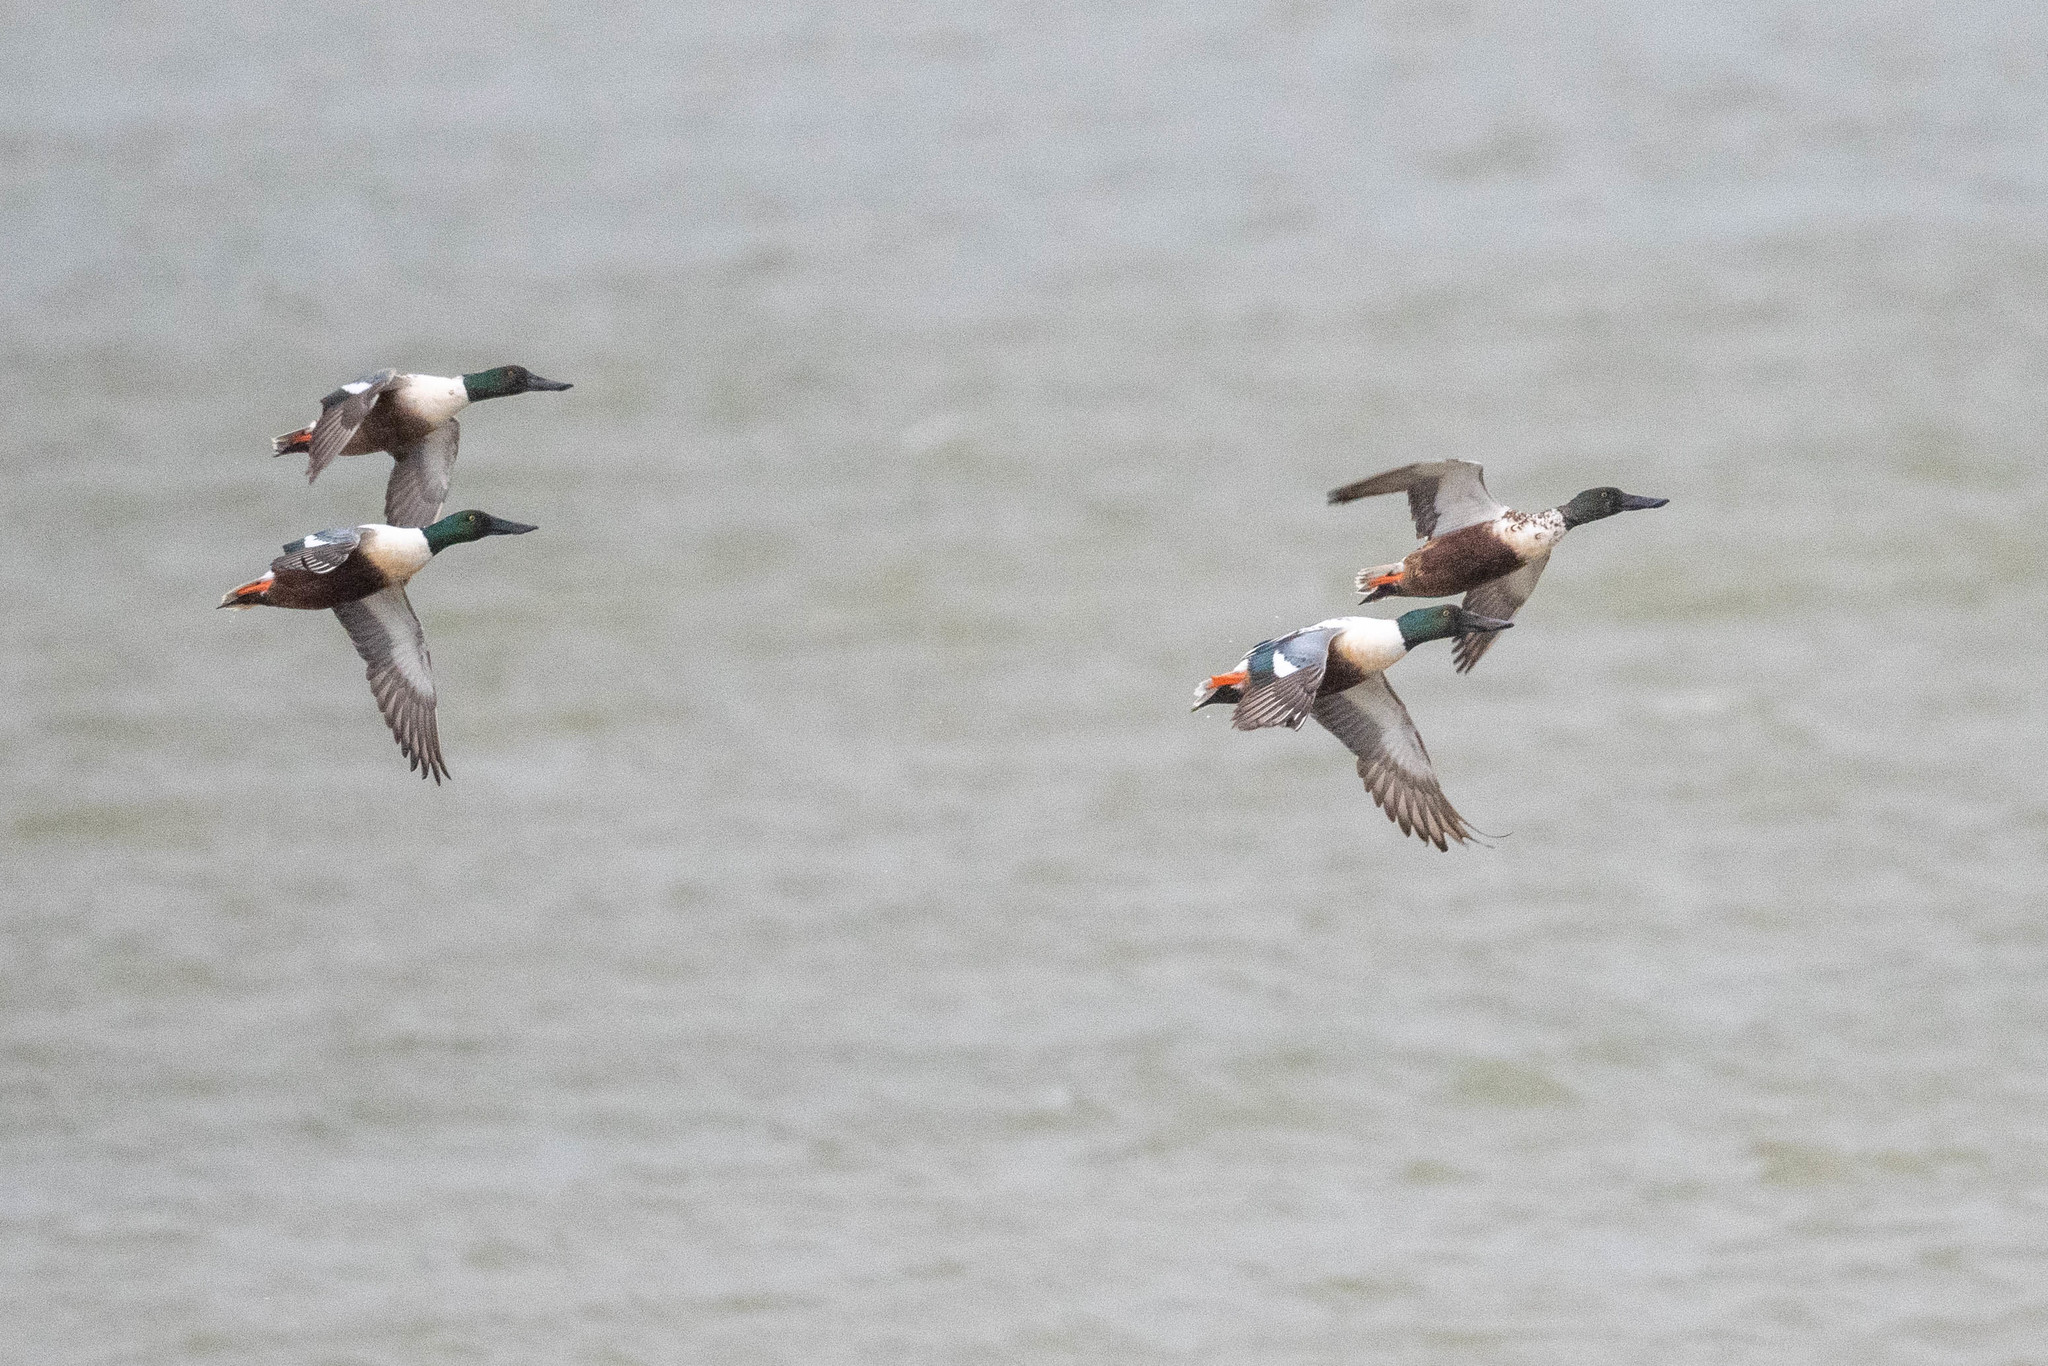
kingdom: Animalia
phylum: Chordata
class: Aves
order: Anseriformes
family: Anatidae
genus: Spatula
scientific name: Spatula clypeata
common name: Northern shoveler
